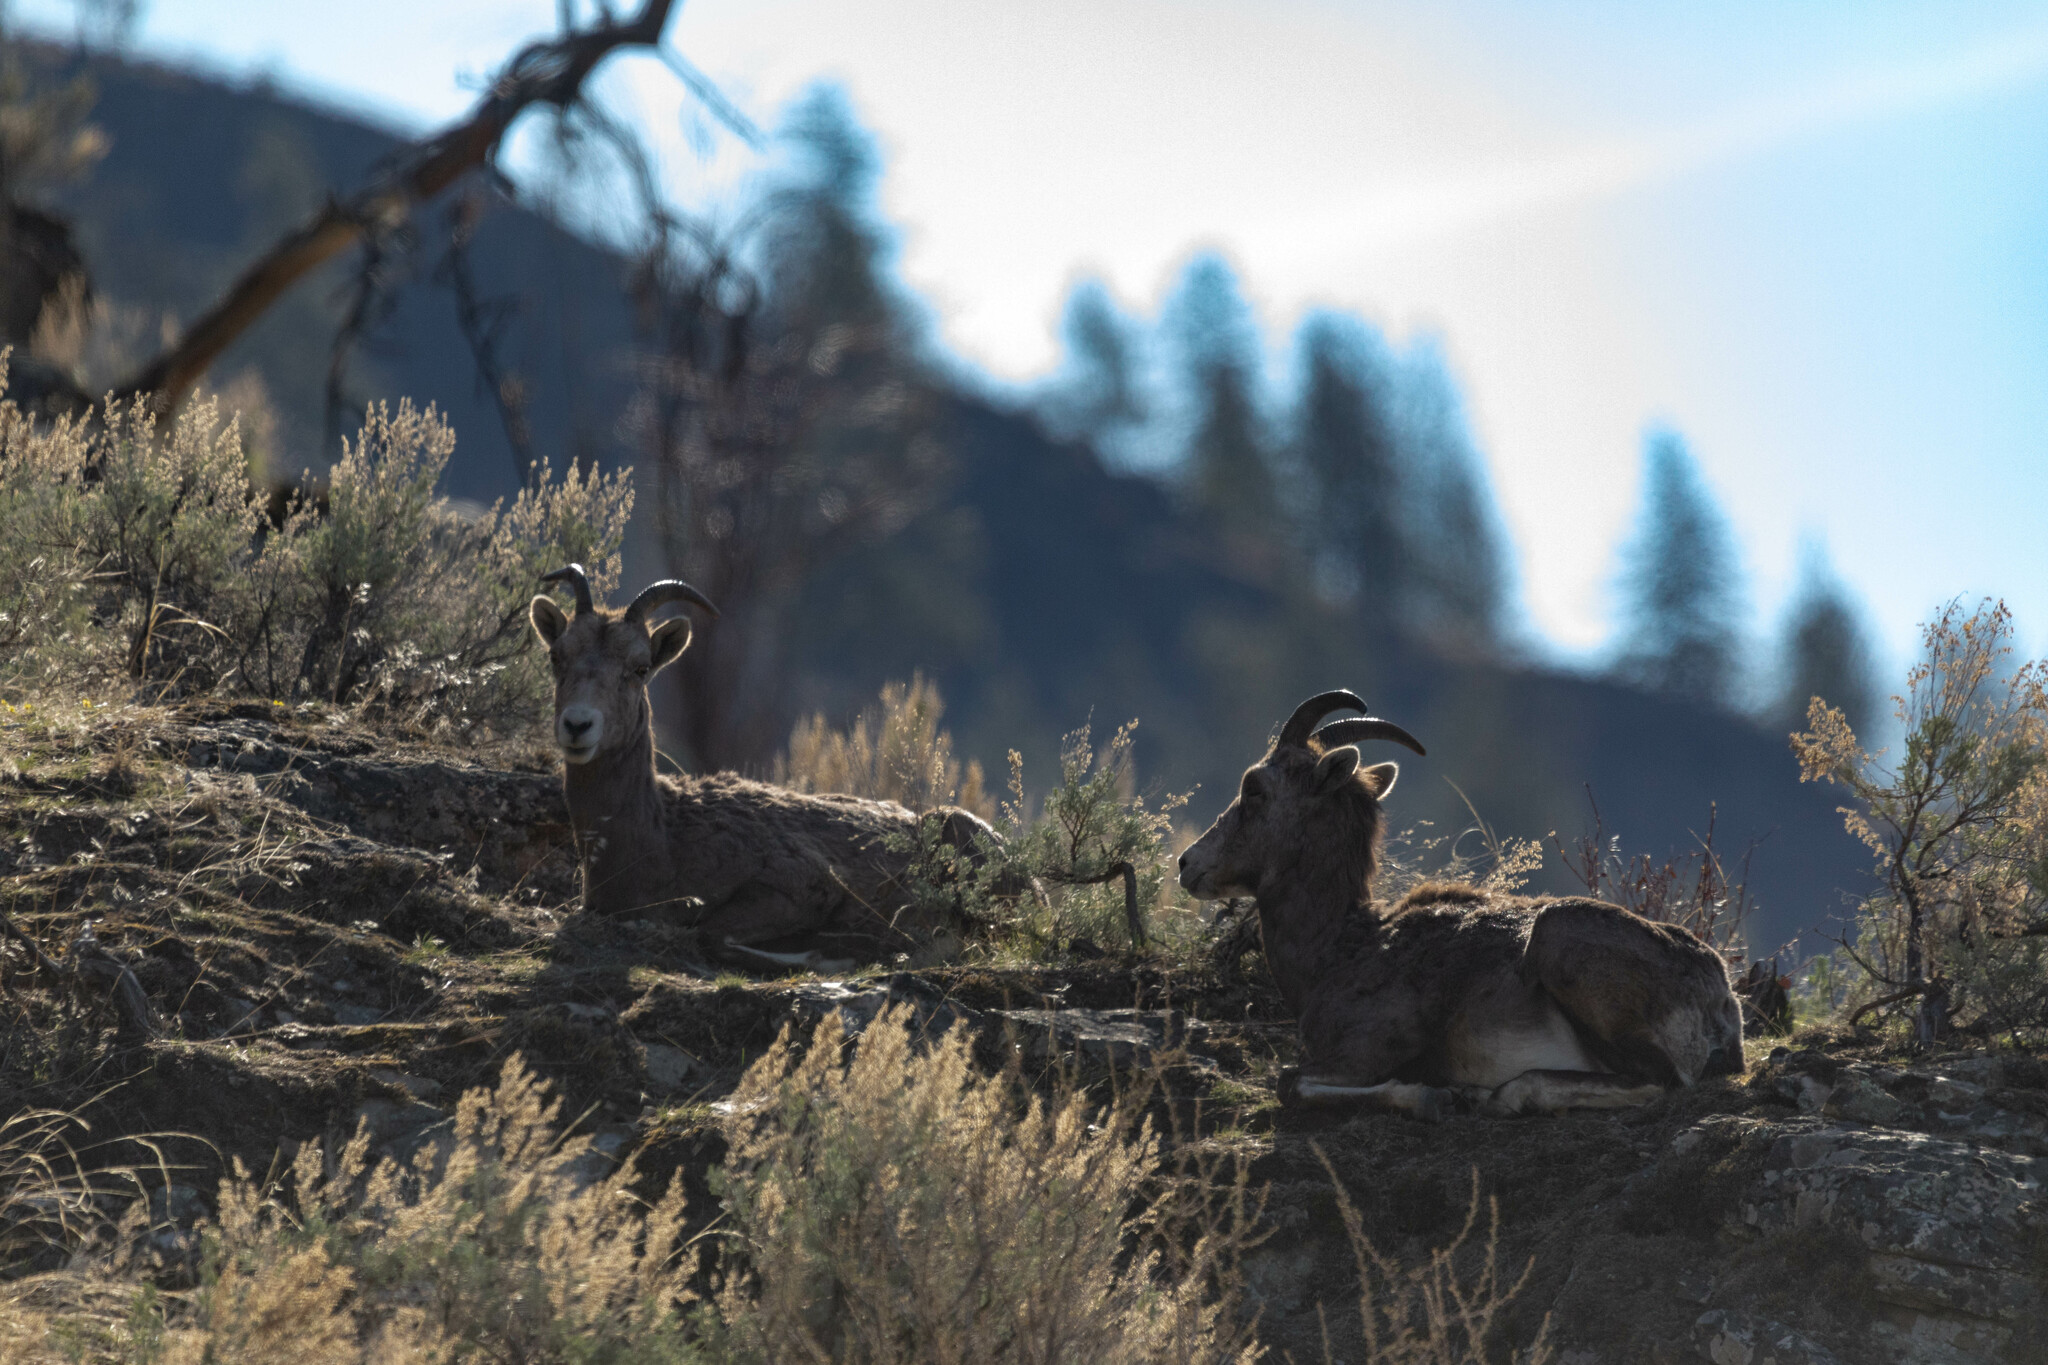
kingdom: Animalia
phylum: Chordata
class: Mammalia
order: Artiodactyla
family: Bovidae
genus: Ovis
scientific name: Ovis canadensis
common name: Bighorn sheep
